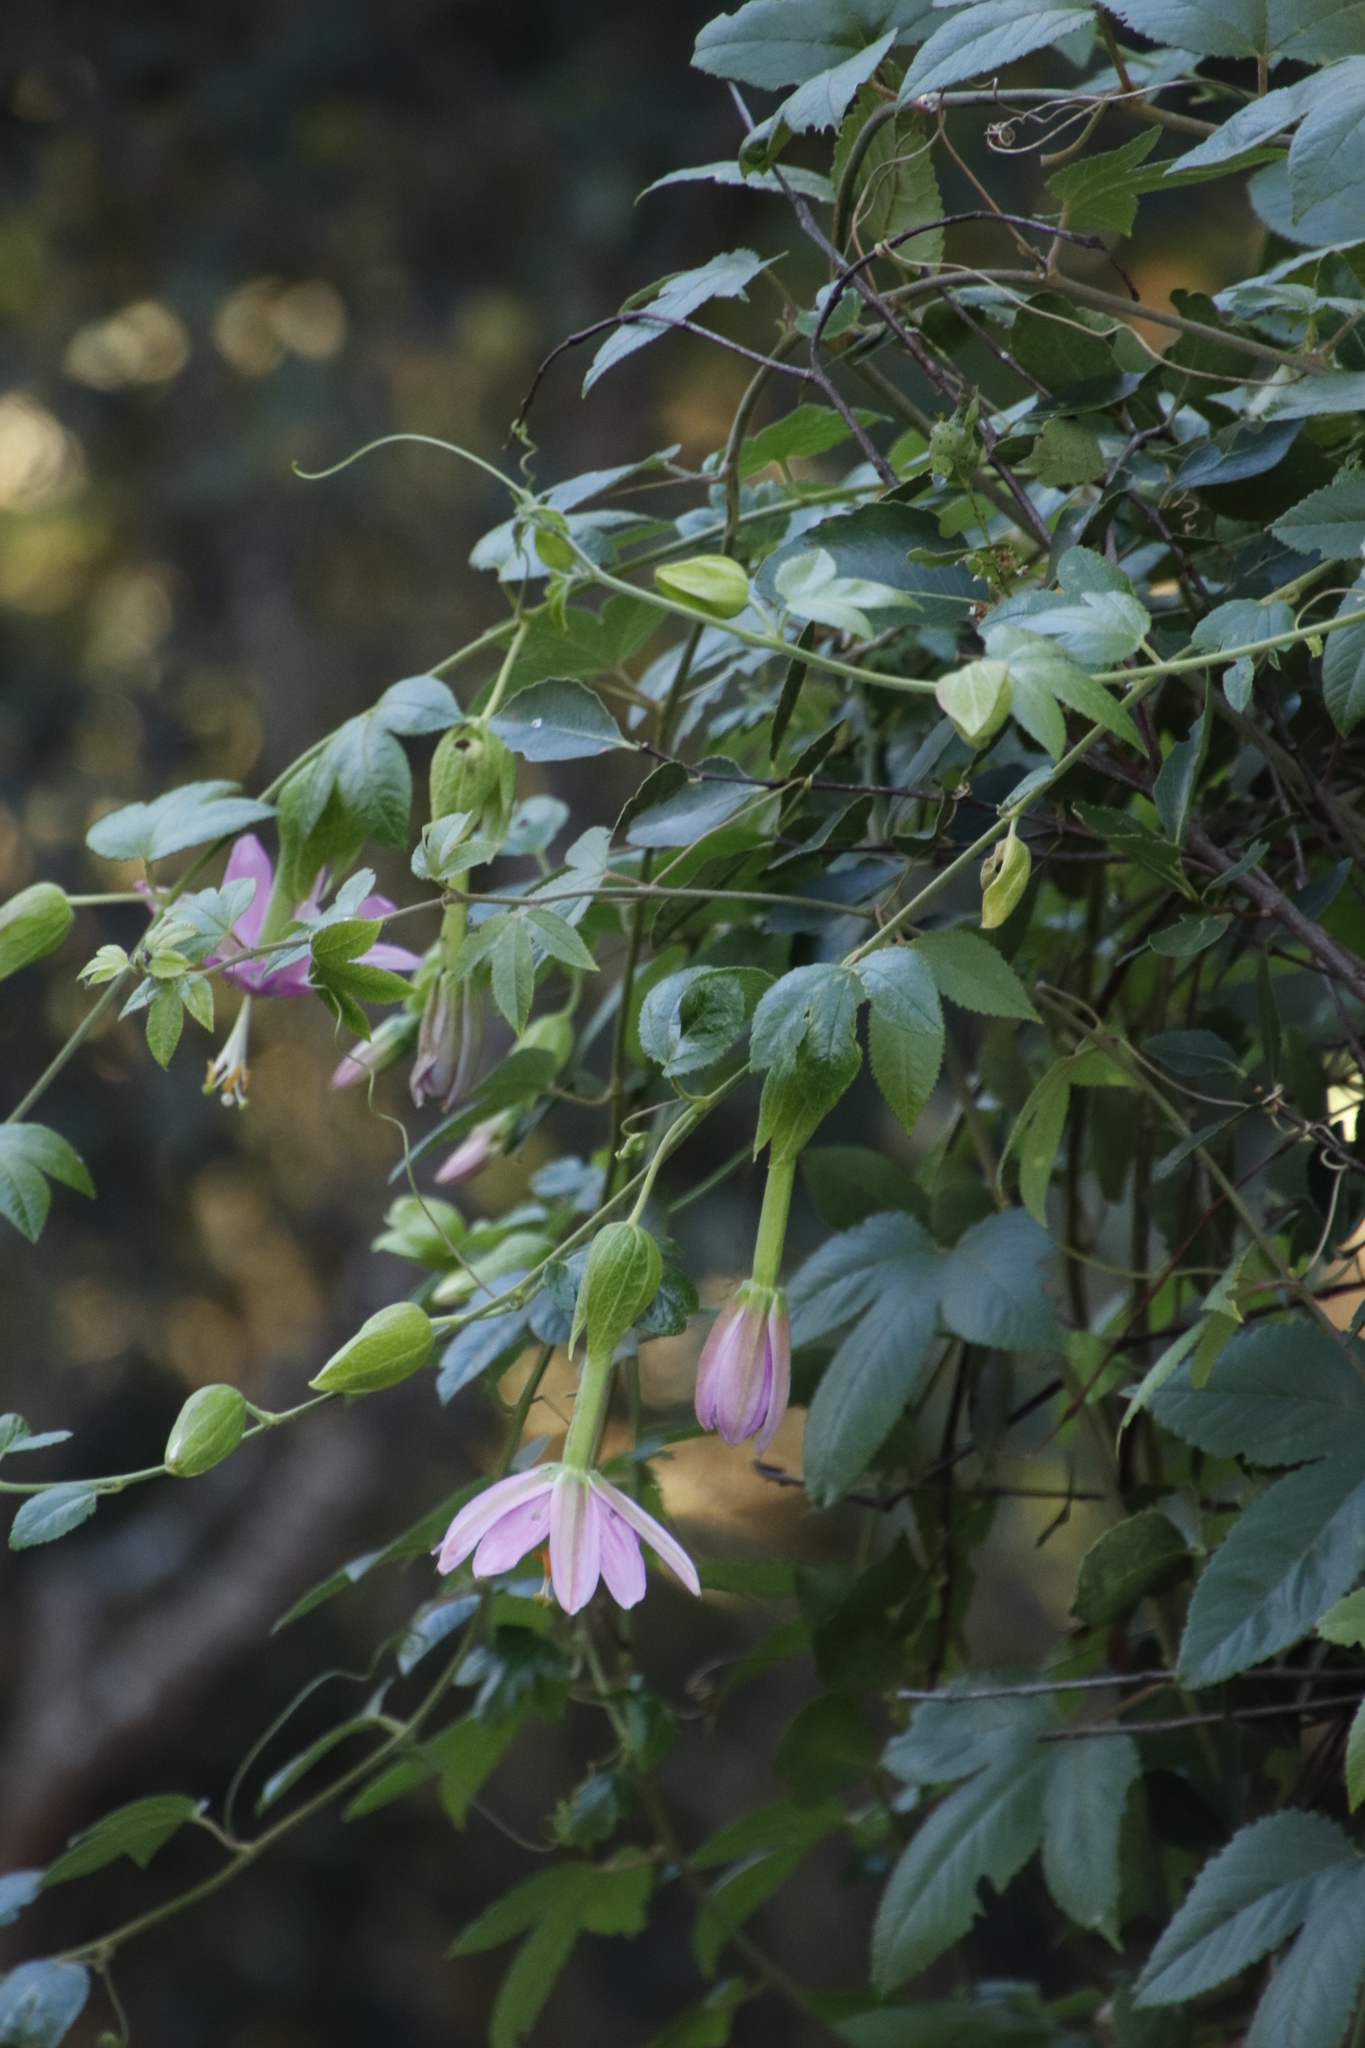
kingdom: Plantae
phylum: Tracheophyta
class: Magnoliopsida
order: Malpighiales
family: Passifloraceae
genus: Passiflora
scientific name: Passiflora tarminiana
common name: Banana poka
